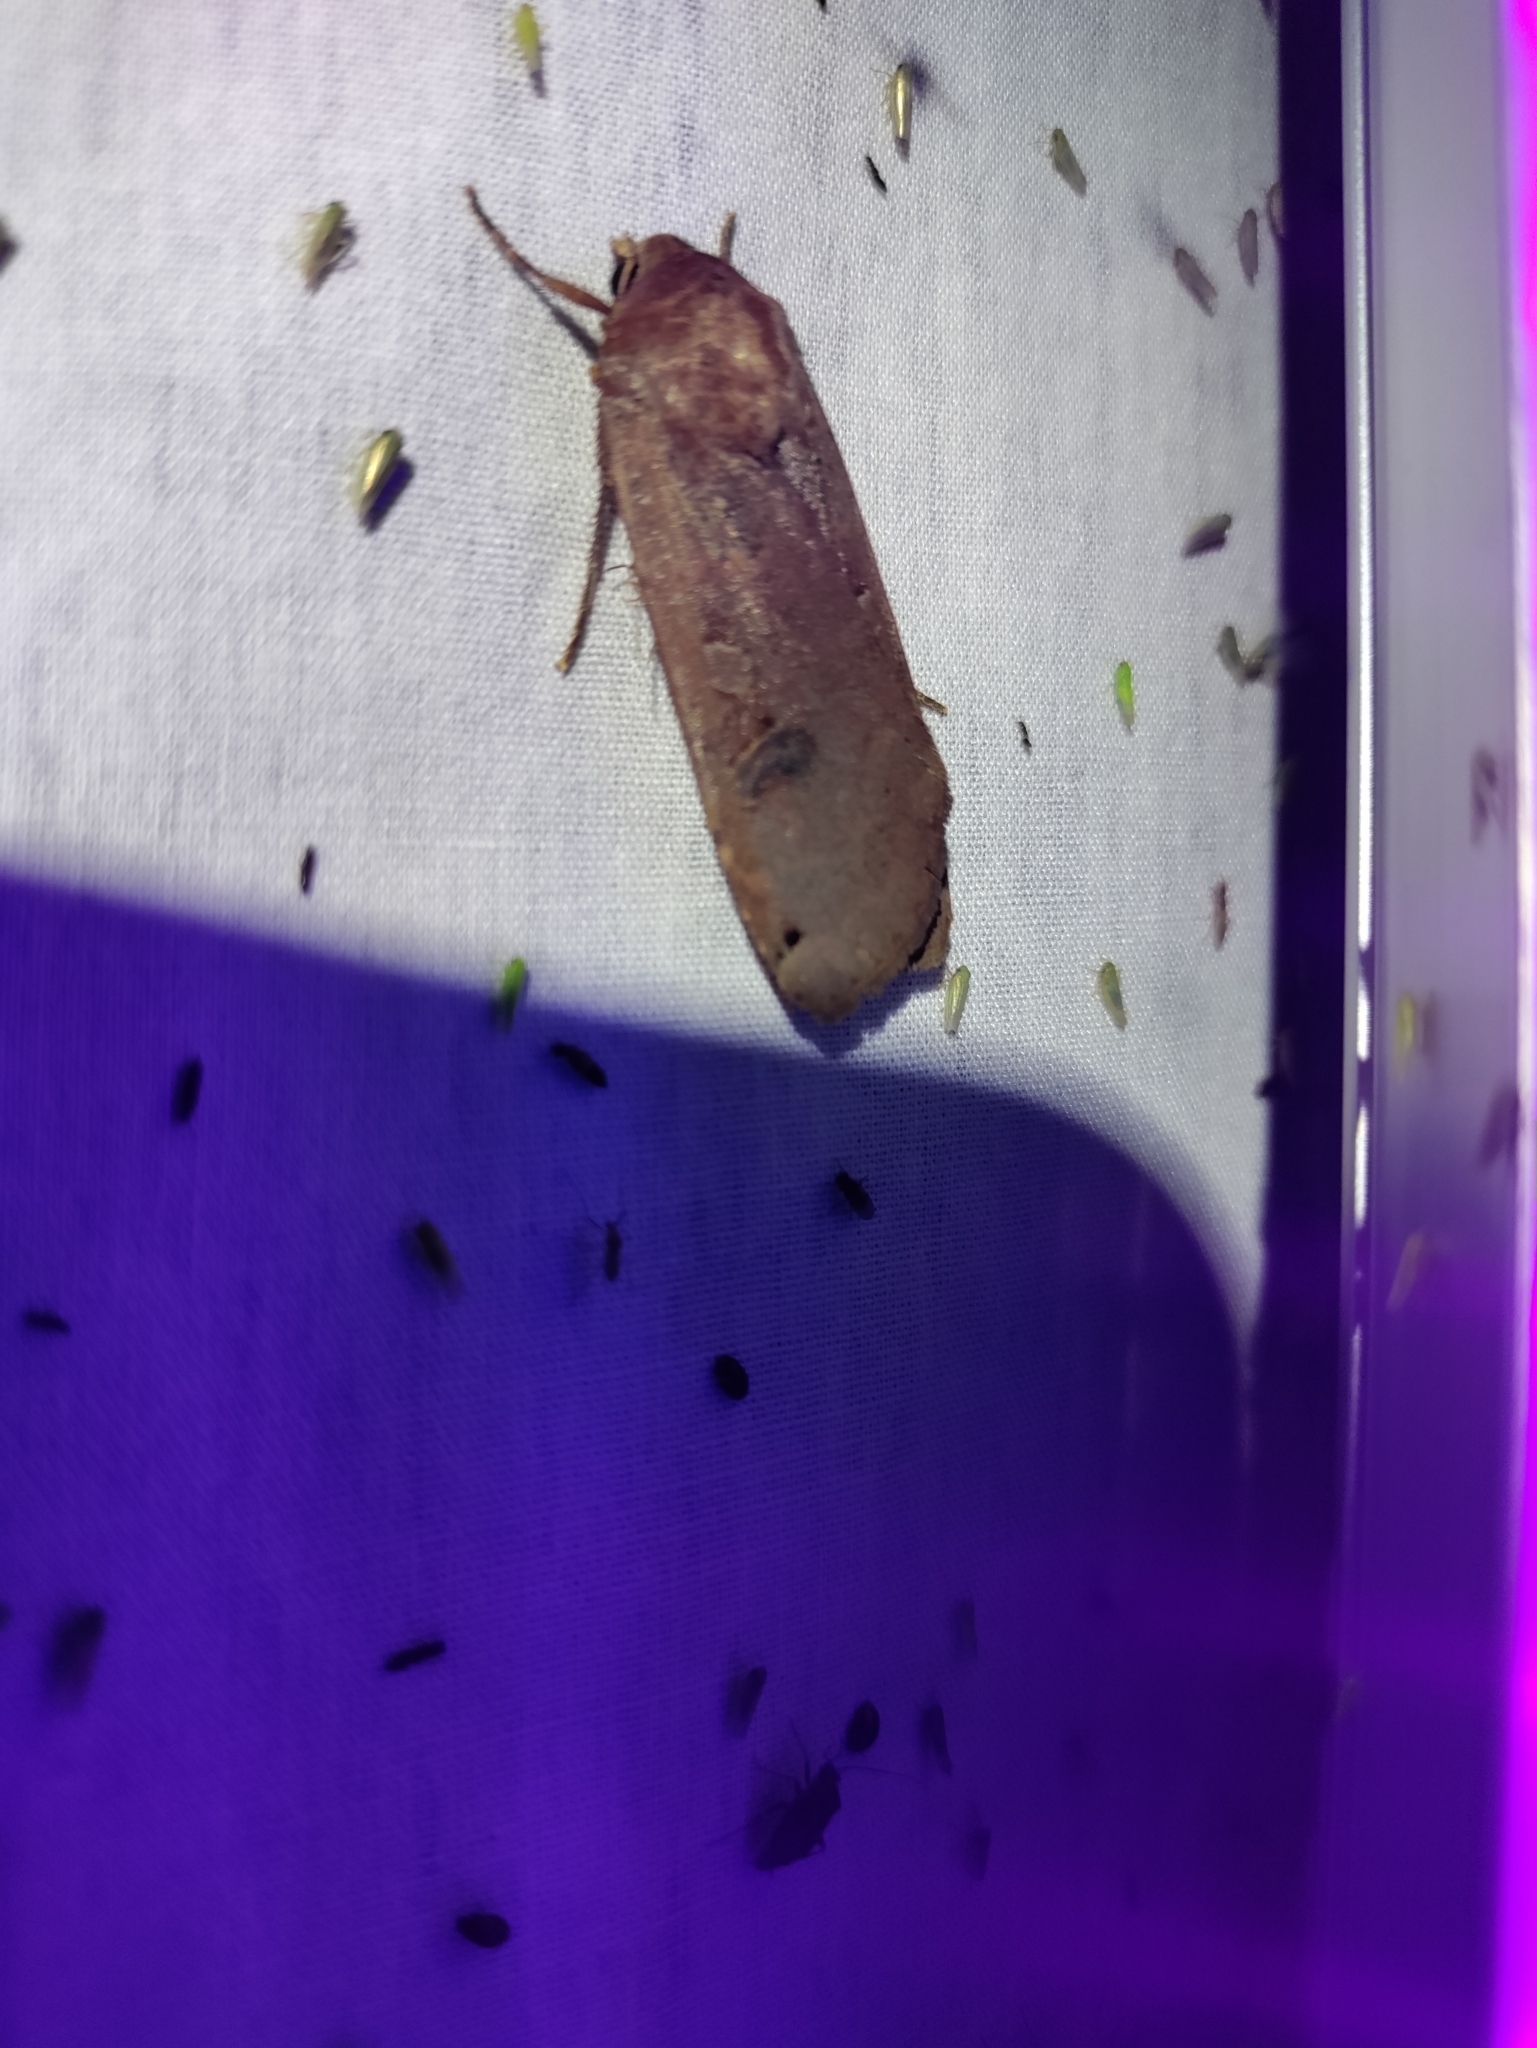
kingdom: Animalia
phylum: Arthropoda
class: Insecta
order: Lepidoptera
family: Noctuidae
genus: Noctua
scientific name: Noctua pronuba
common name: Large yellow underwing
